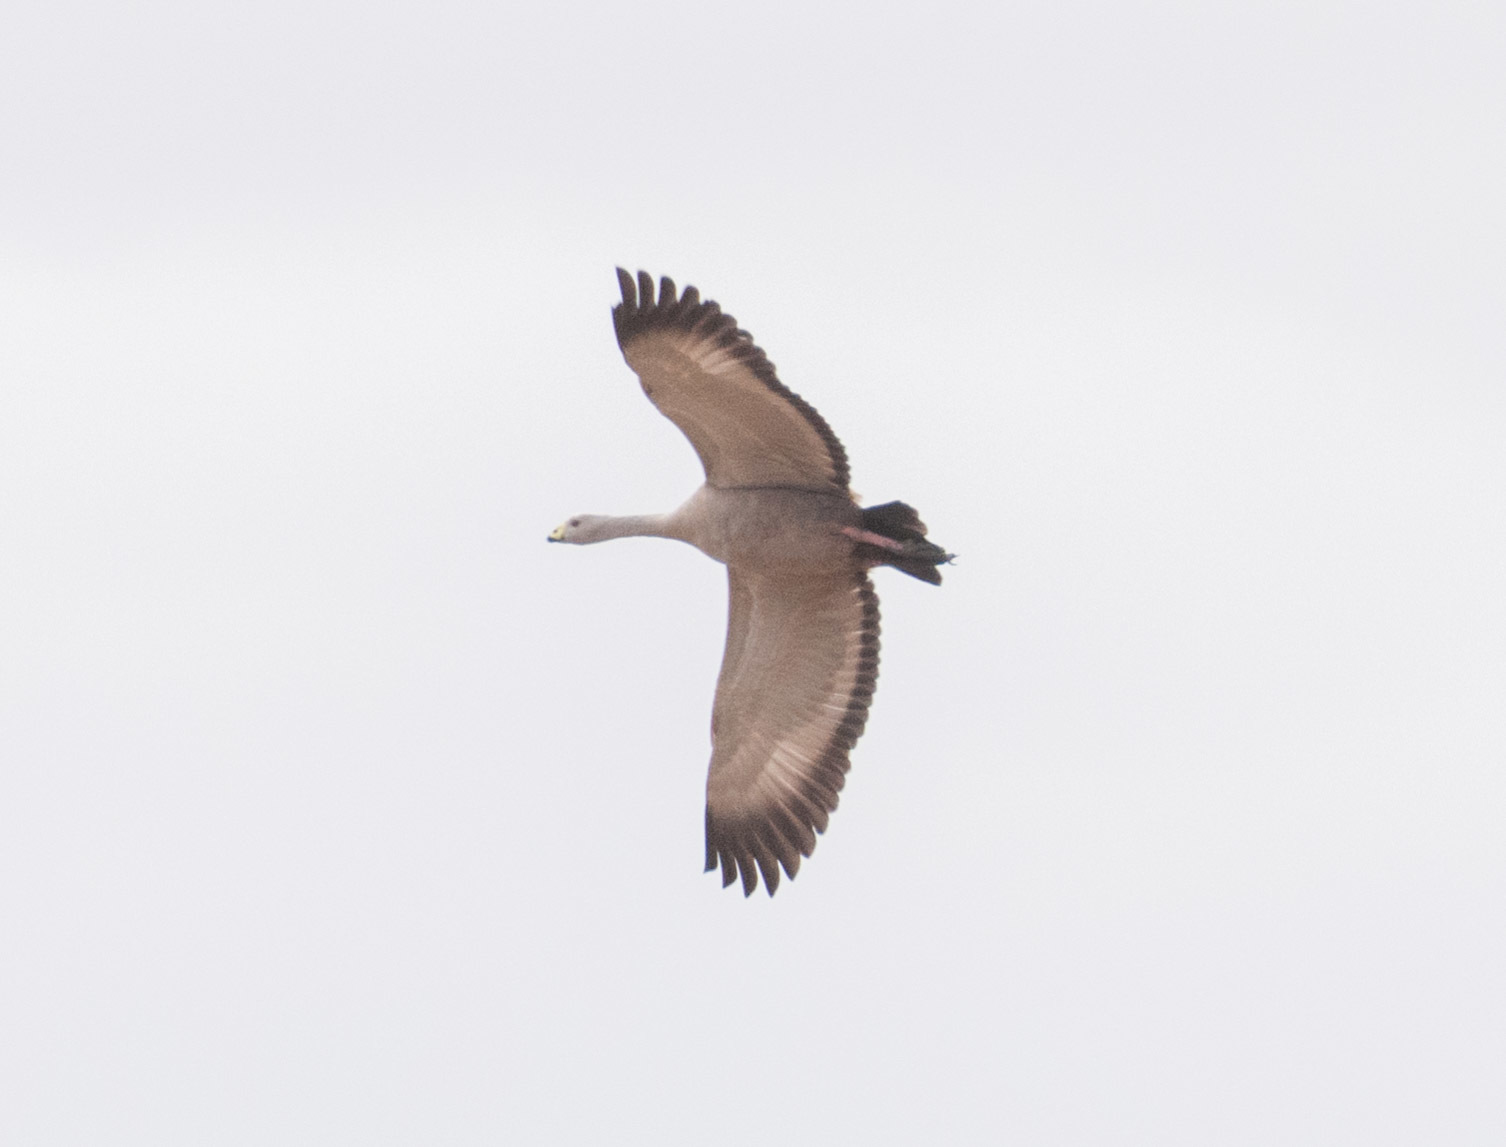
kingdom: Animalia
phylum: Chordata
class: Aves
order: Anseriformes
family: Anatidae
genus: Cereopsis
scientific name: Cereopsis novaehollandiae
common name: Cape barren goose
